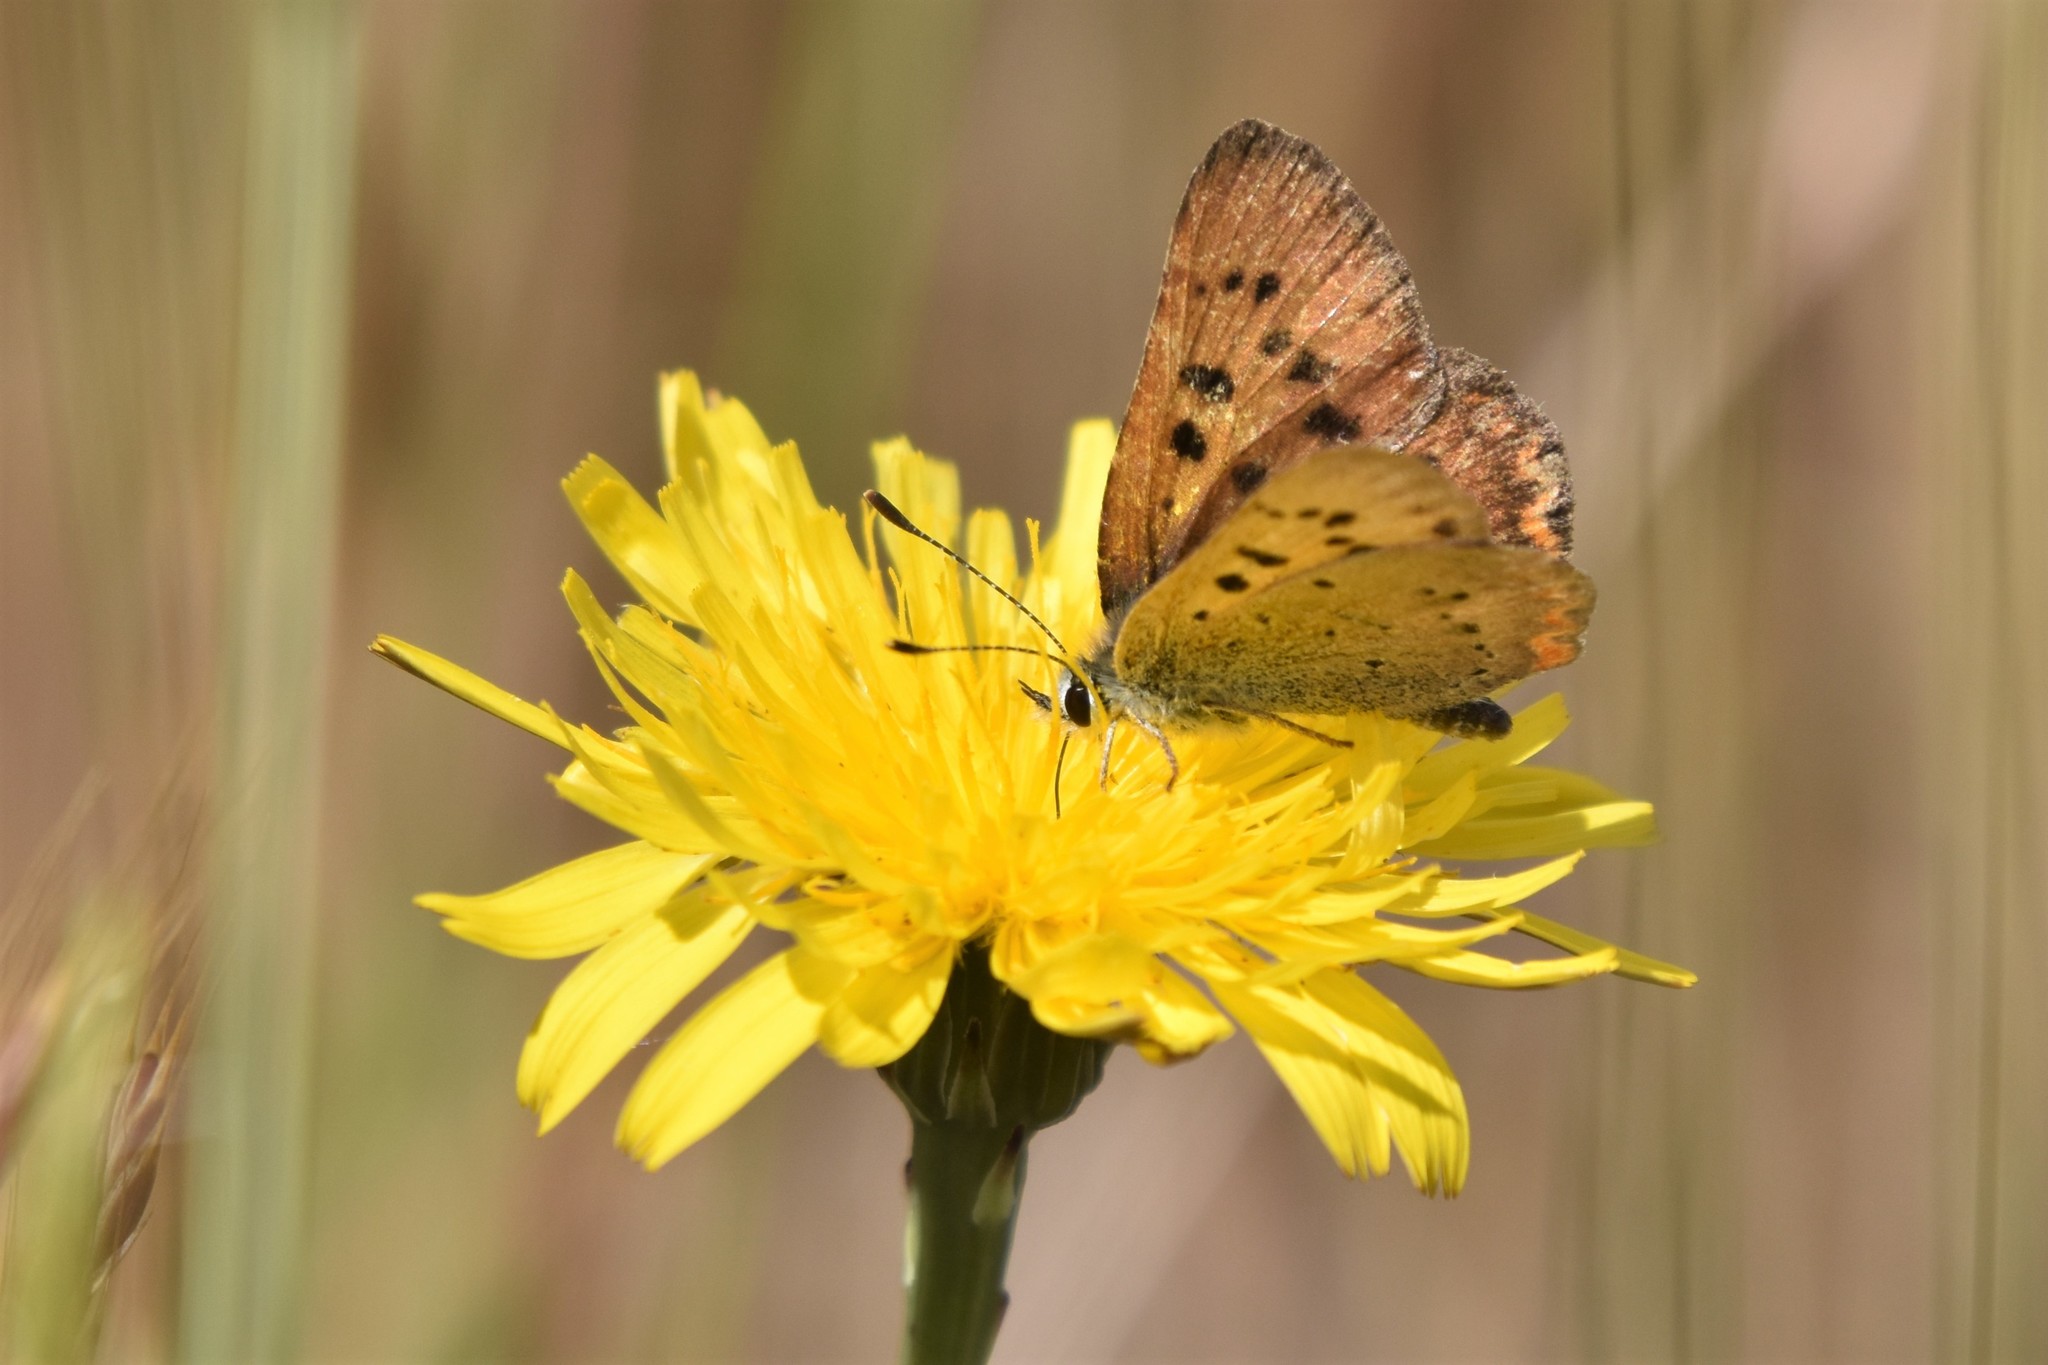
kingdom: Animalia
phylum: Arthropoda
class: Insecta
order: Lepidoptera
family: Lycaenidae
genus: Tharsalea
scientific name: Tharsalea helloides
